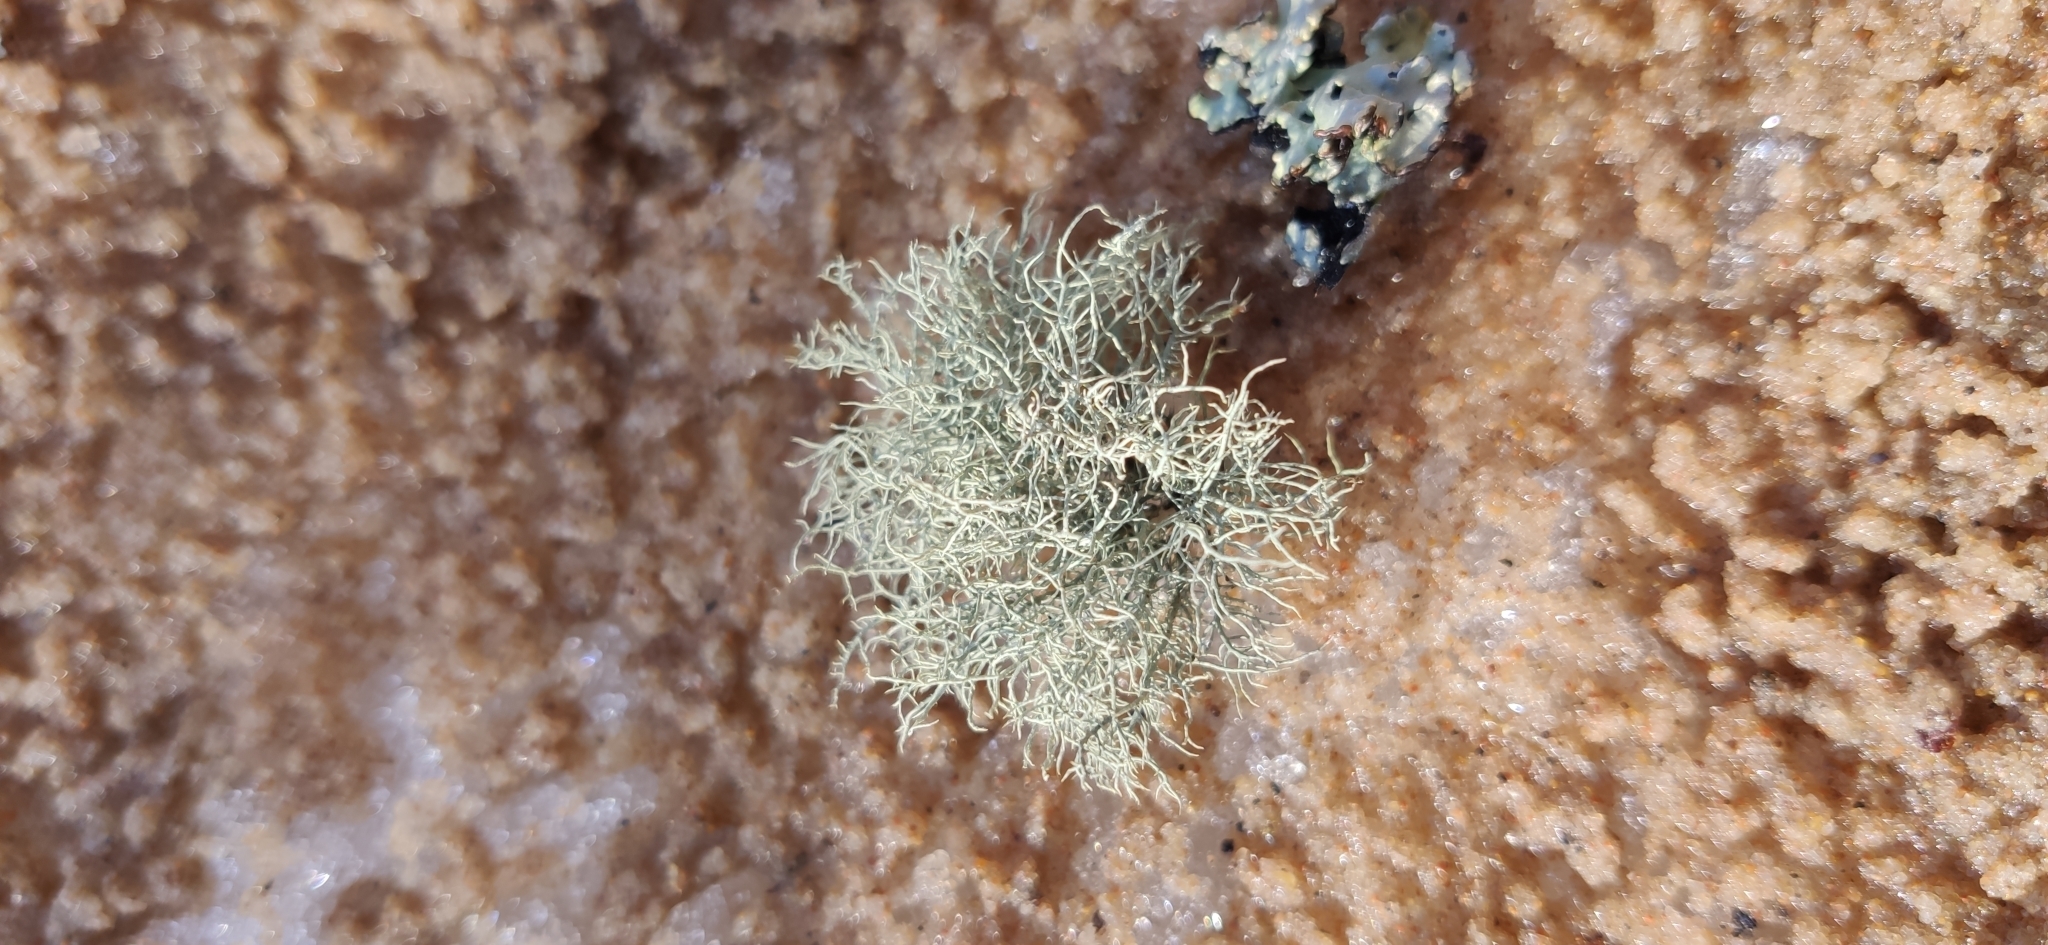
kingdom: Fungi
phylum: Ascomycota
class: Lecanoromycetes
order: Lecanorales
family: Parmeliaceae
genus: Usnea
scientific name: Usnea
